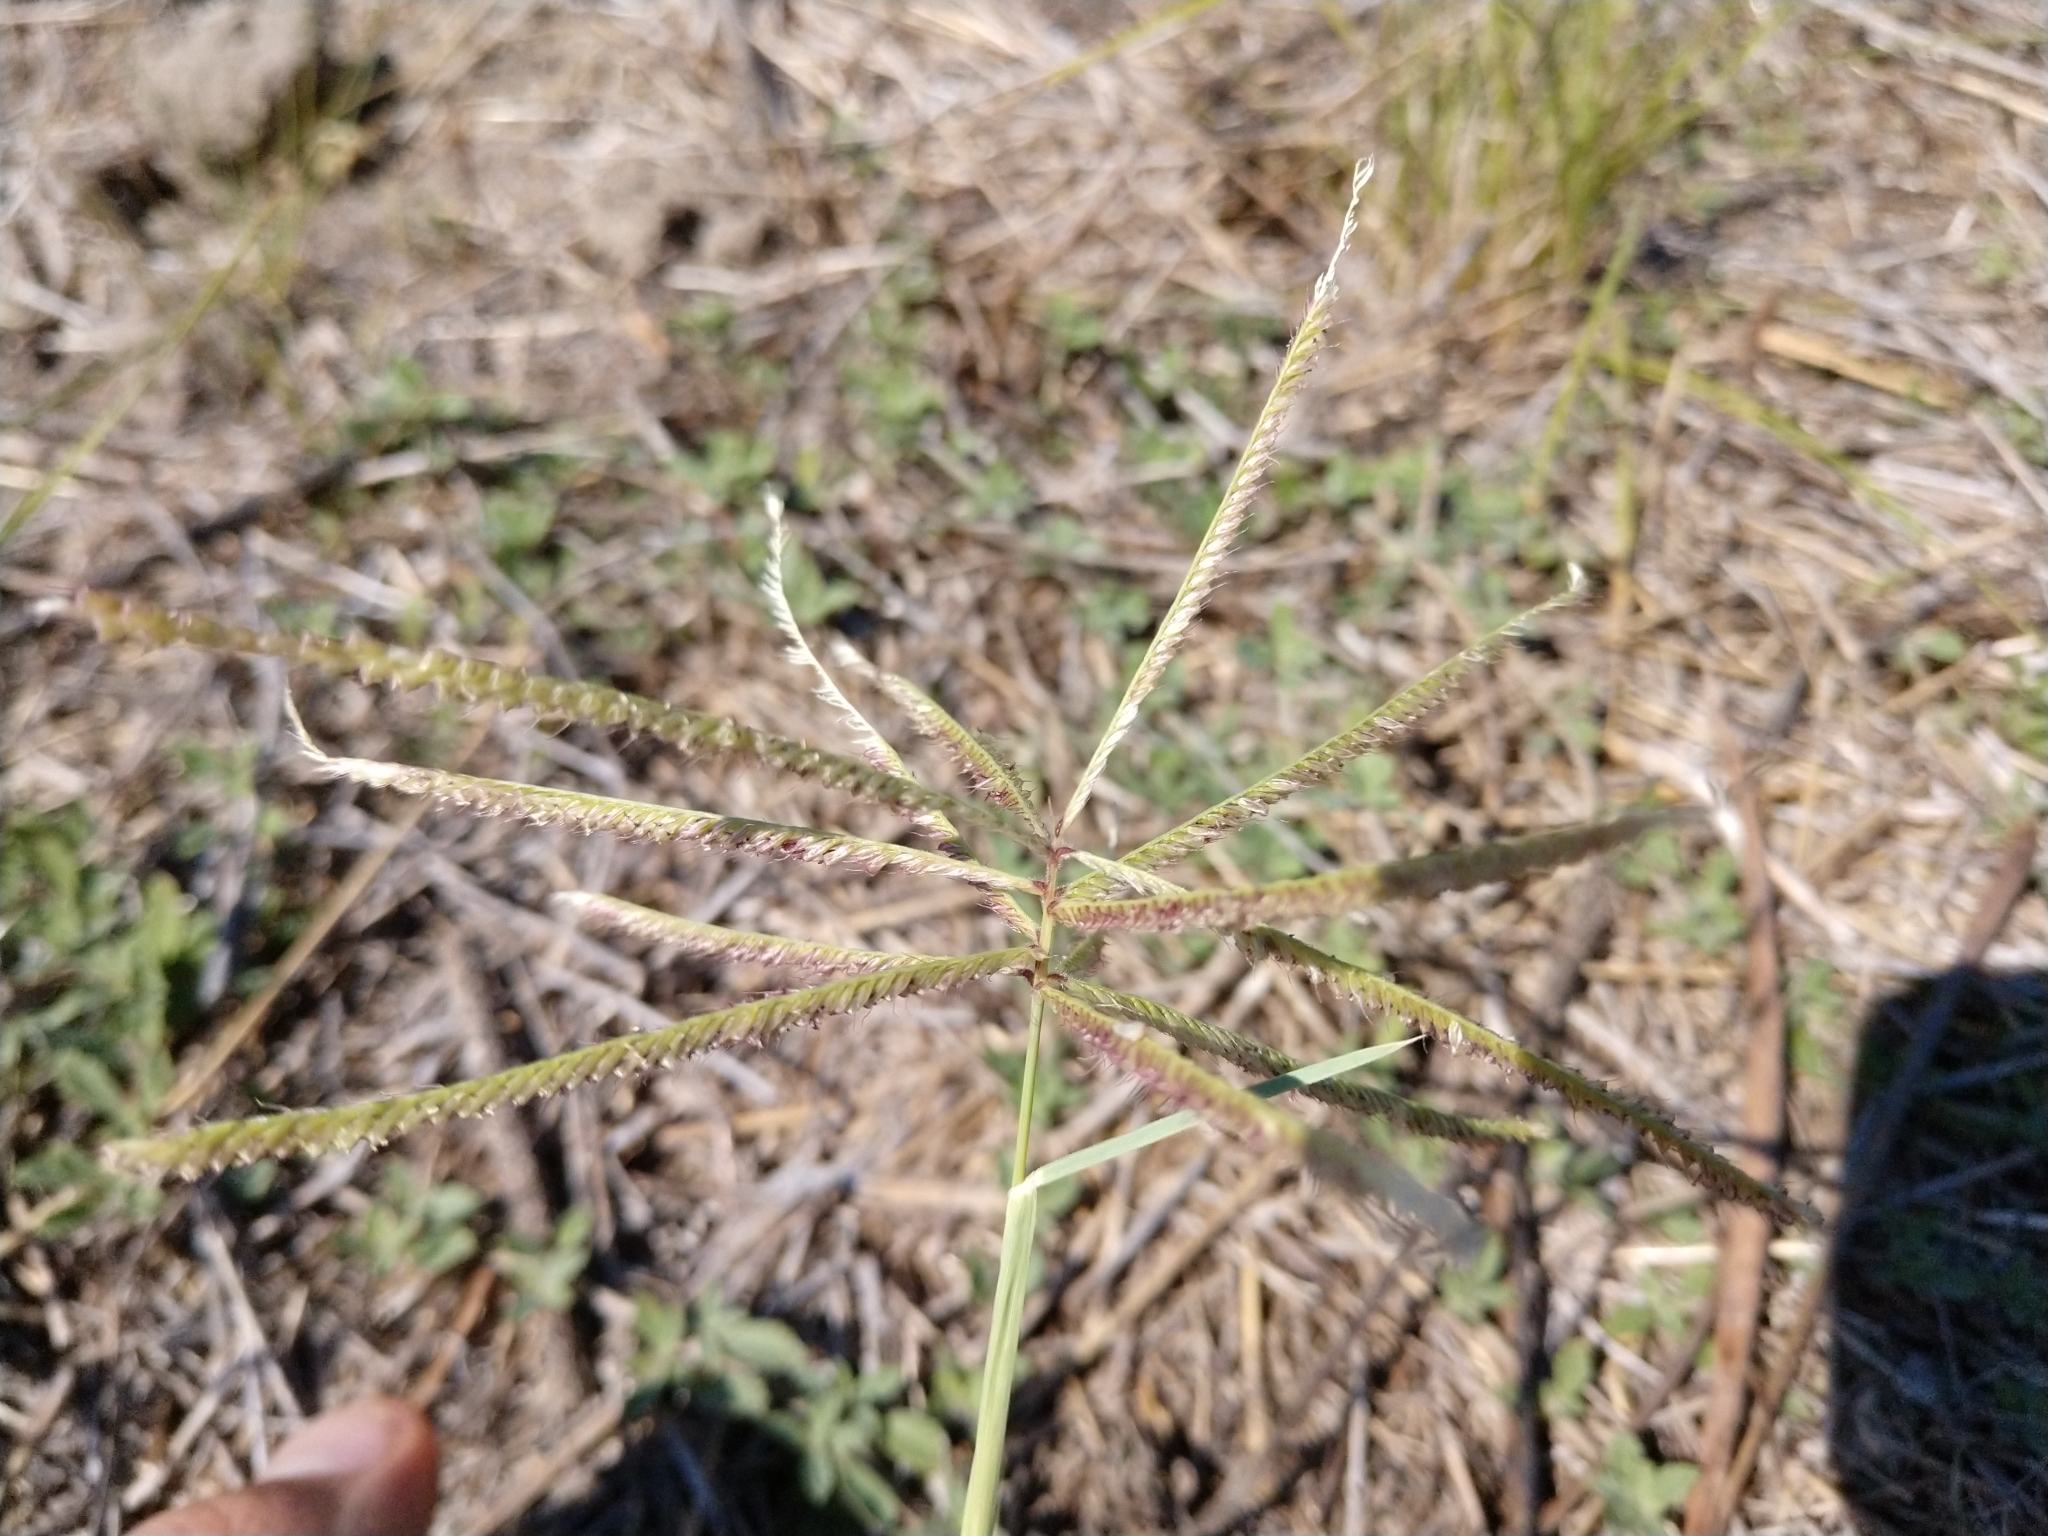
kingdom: Plantae
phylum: Tracheophyta
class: Liliopsida
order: Poales
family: Poaceae
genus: Chloris
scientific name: Chloris verticillata
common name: Tumble windmill grass
